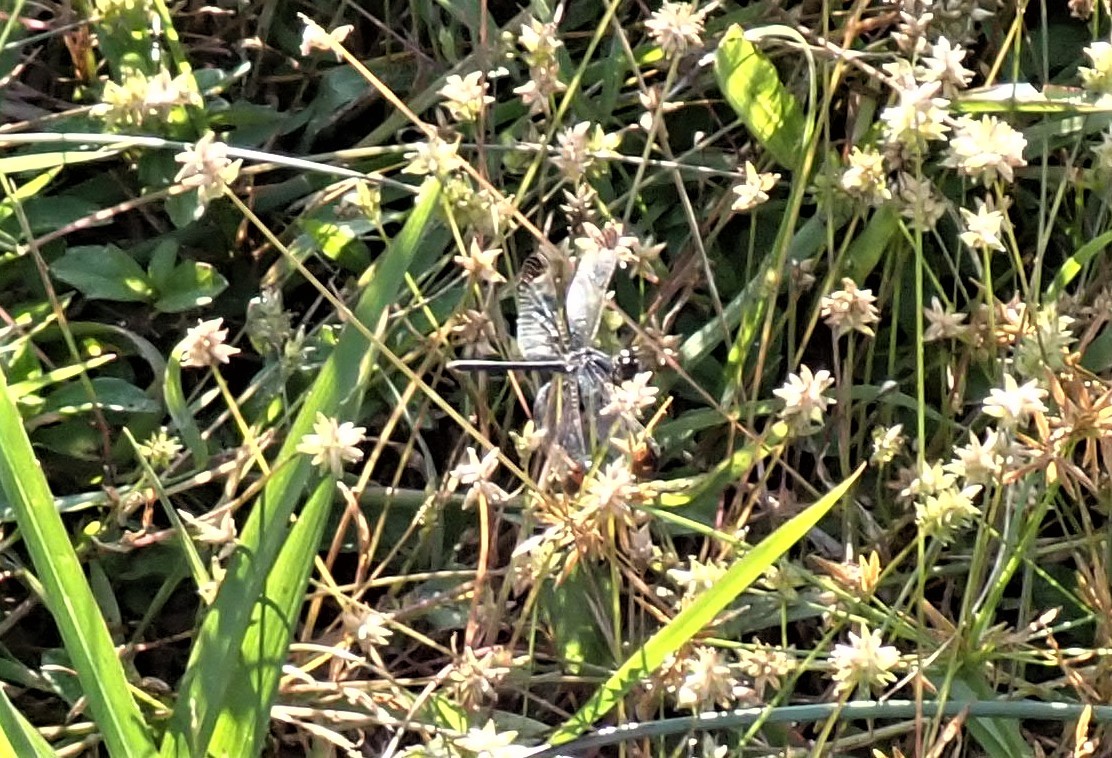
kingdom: Animalia
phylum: Arthropoda
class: Insecta
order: Odonata
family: Libellulidae
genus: Diplacodes
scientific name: Diplacodes nebulosa
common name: Black-tipped percher
